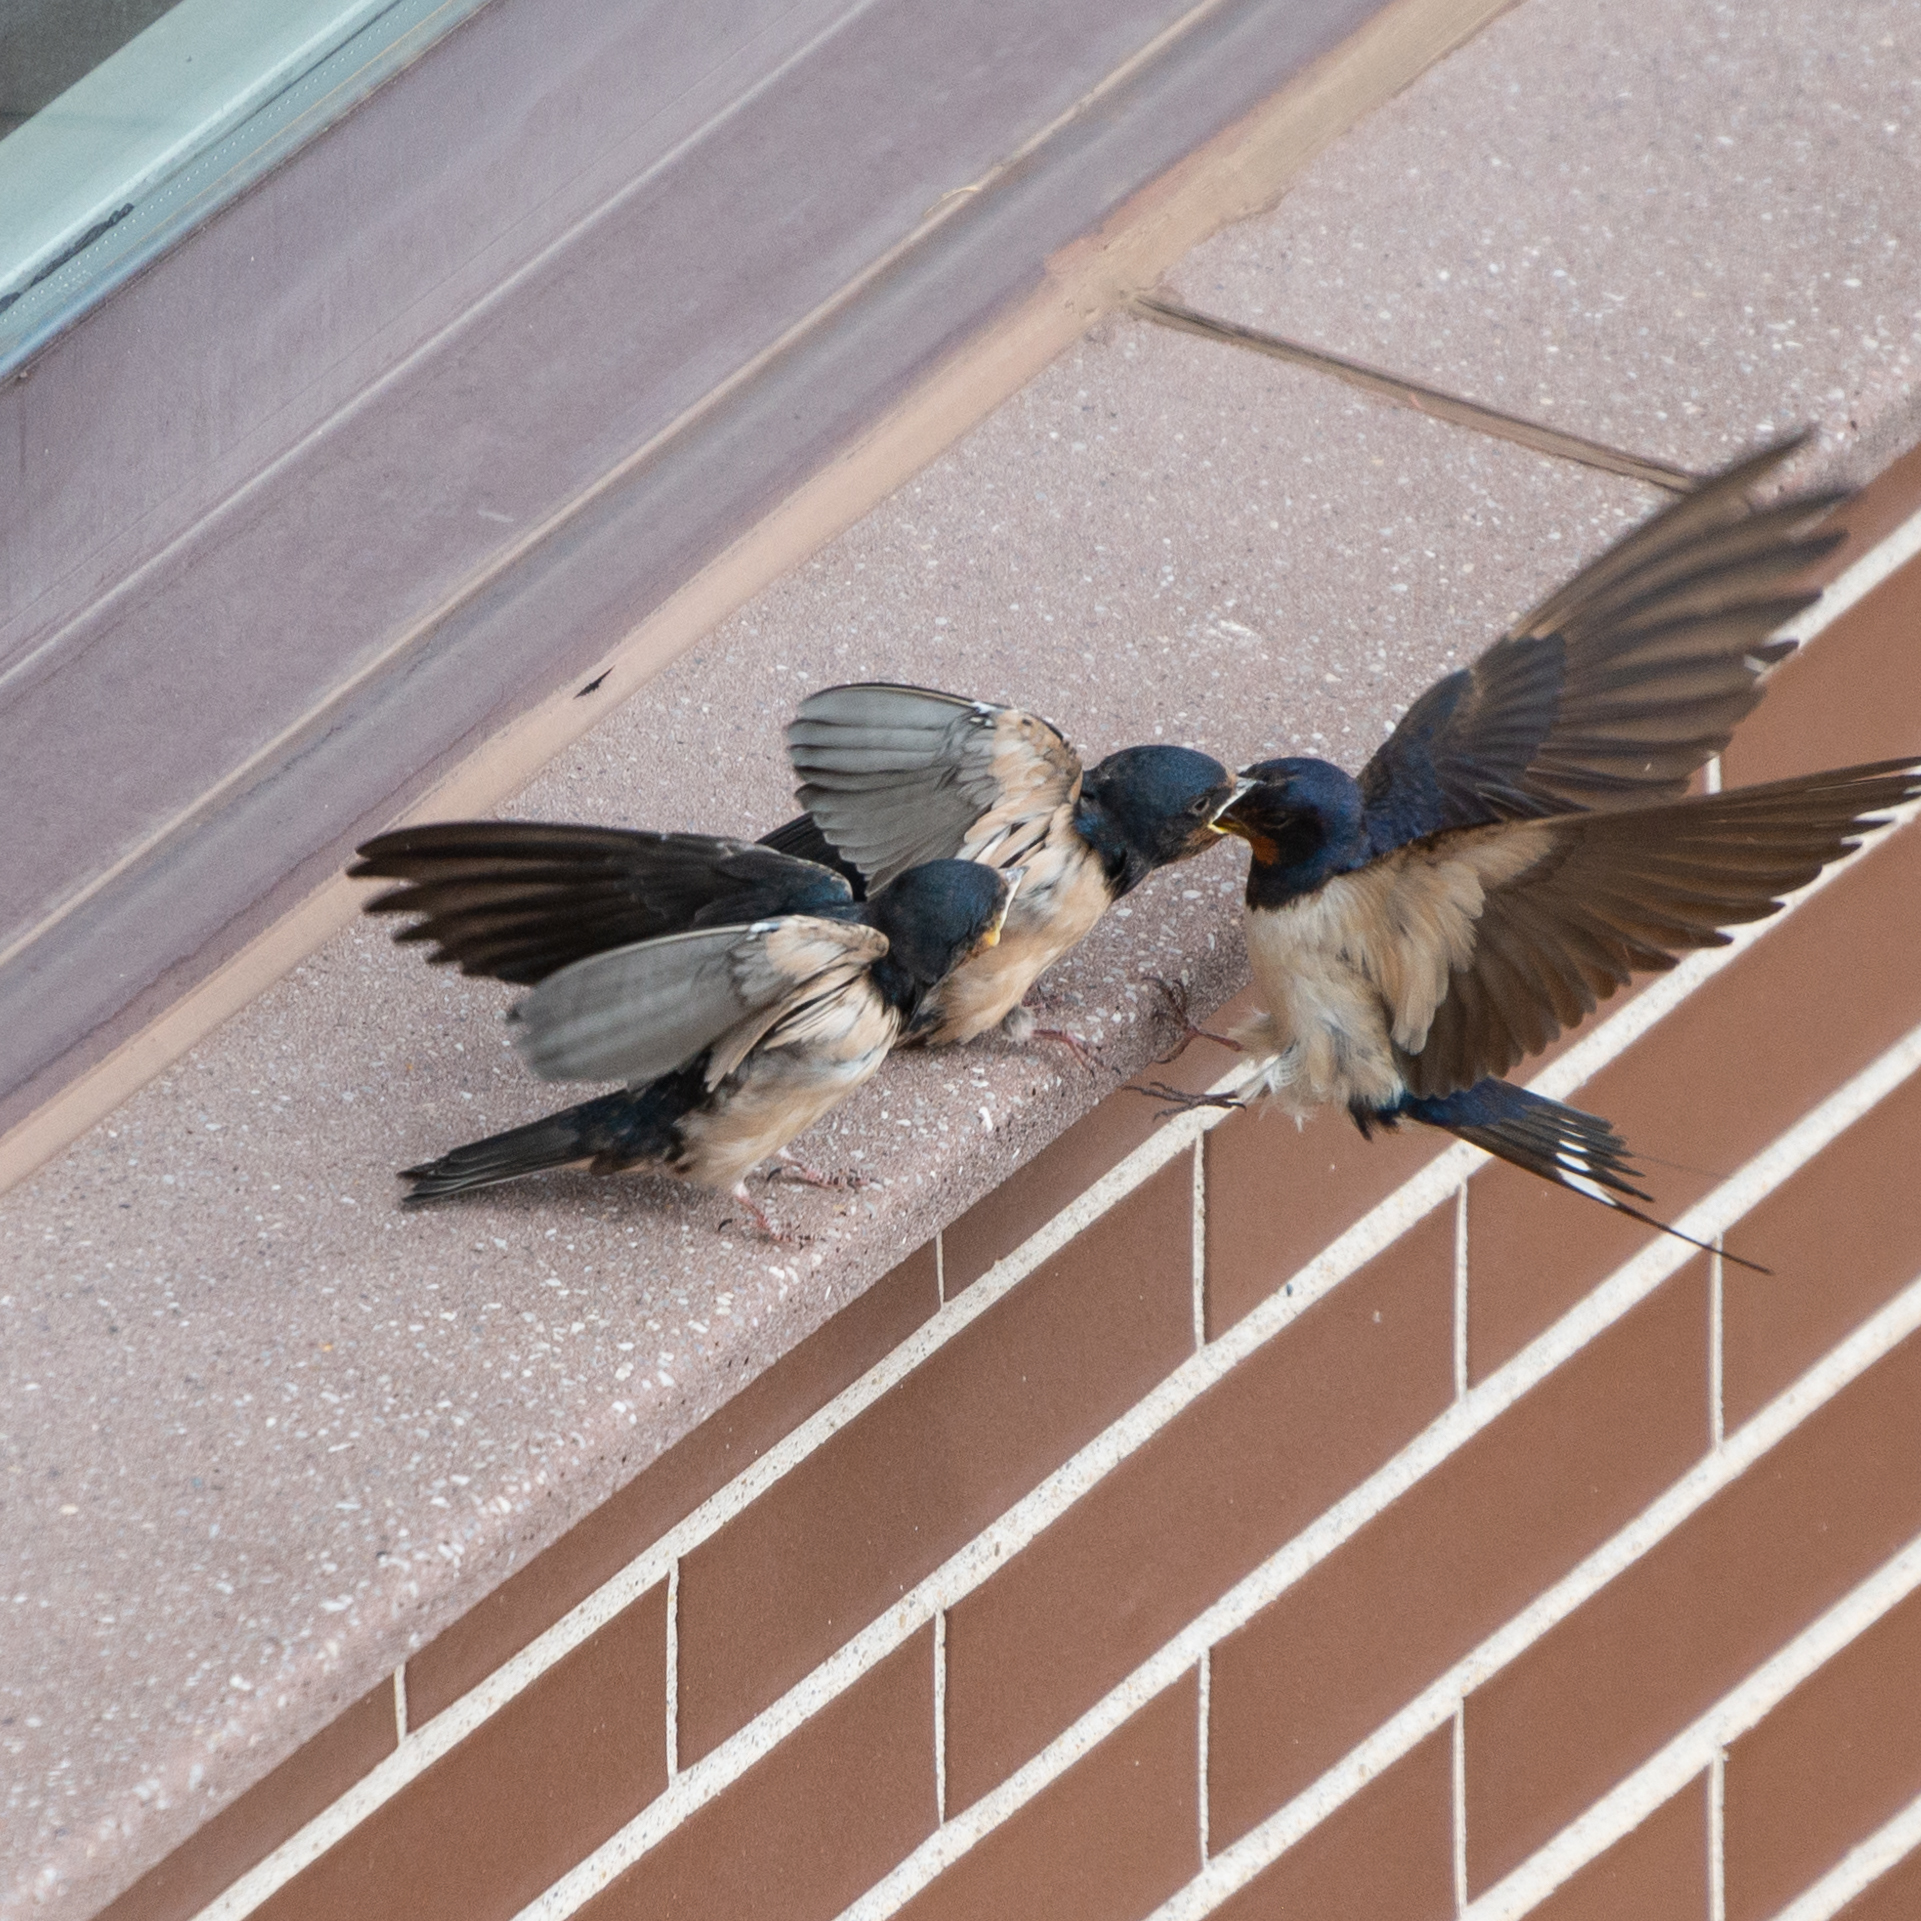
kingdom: Animalia
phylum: Chordata
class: Aves
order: Passeriformes
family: Hirundinidae
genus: Hirundo
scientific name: Hirundo rustica
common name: Barn swallow
